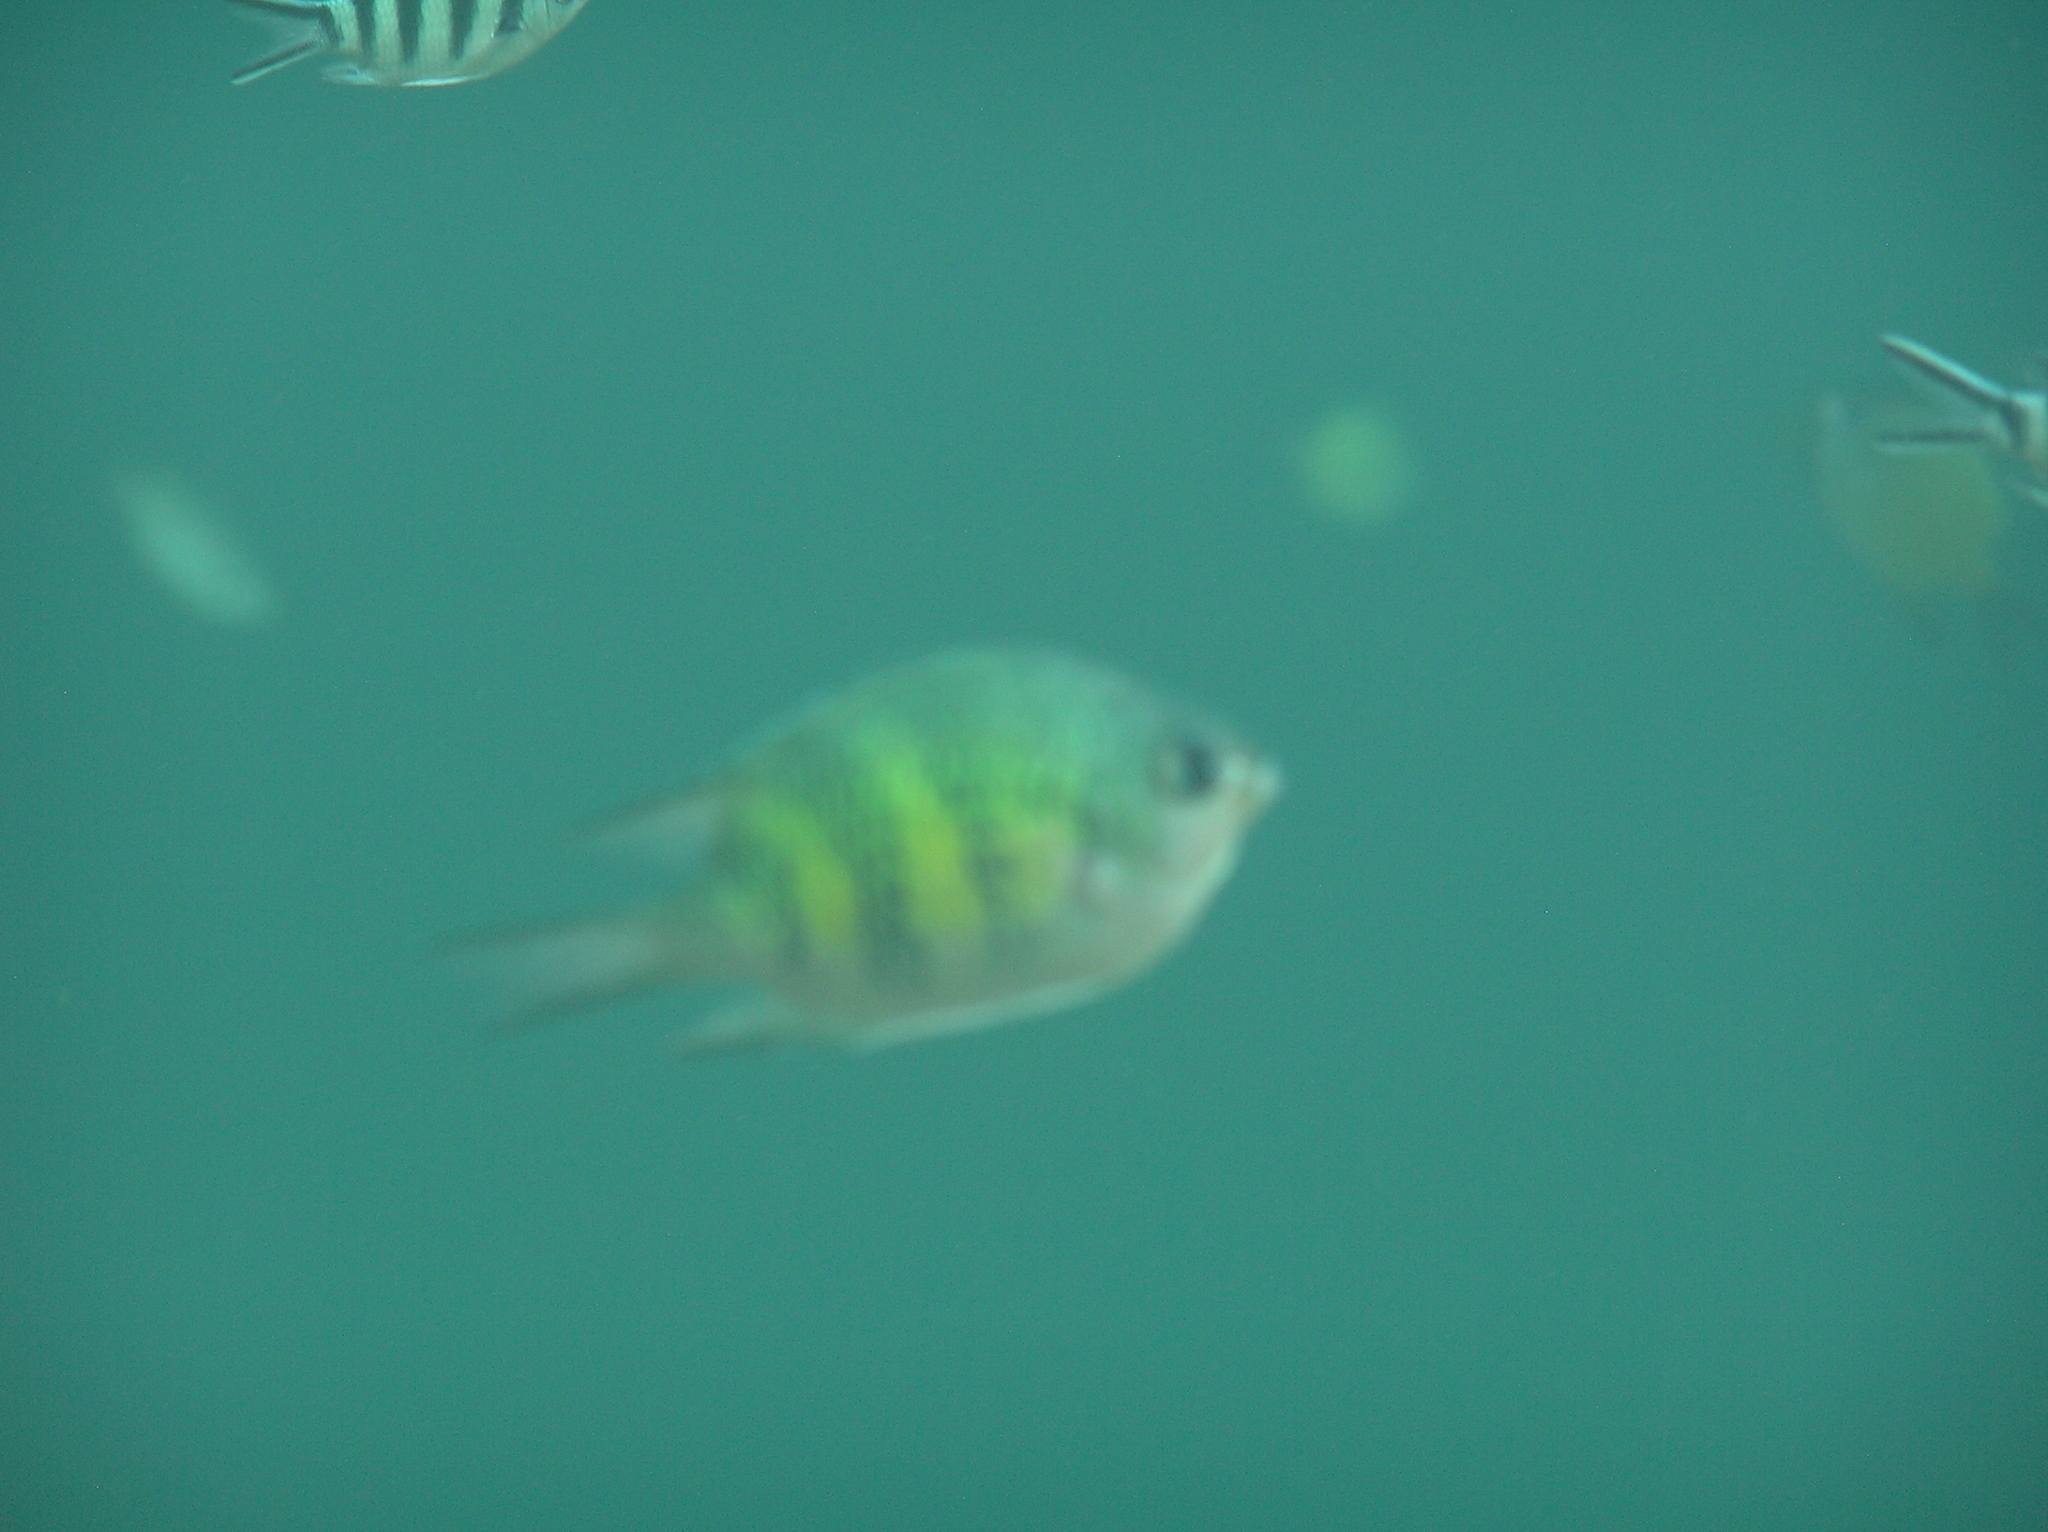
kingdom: Animalia
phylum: Chordata
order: Perciformes
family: Pomacentridae
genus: Amblyglyphidodon
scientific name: Amblyglyphidodon curacao
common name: Staghorn damsel
